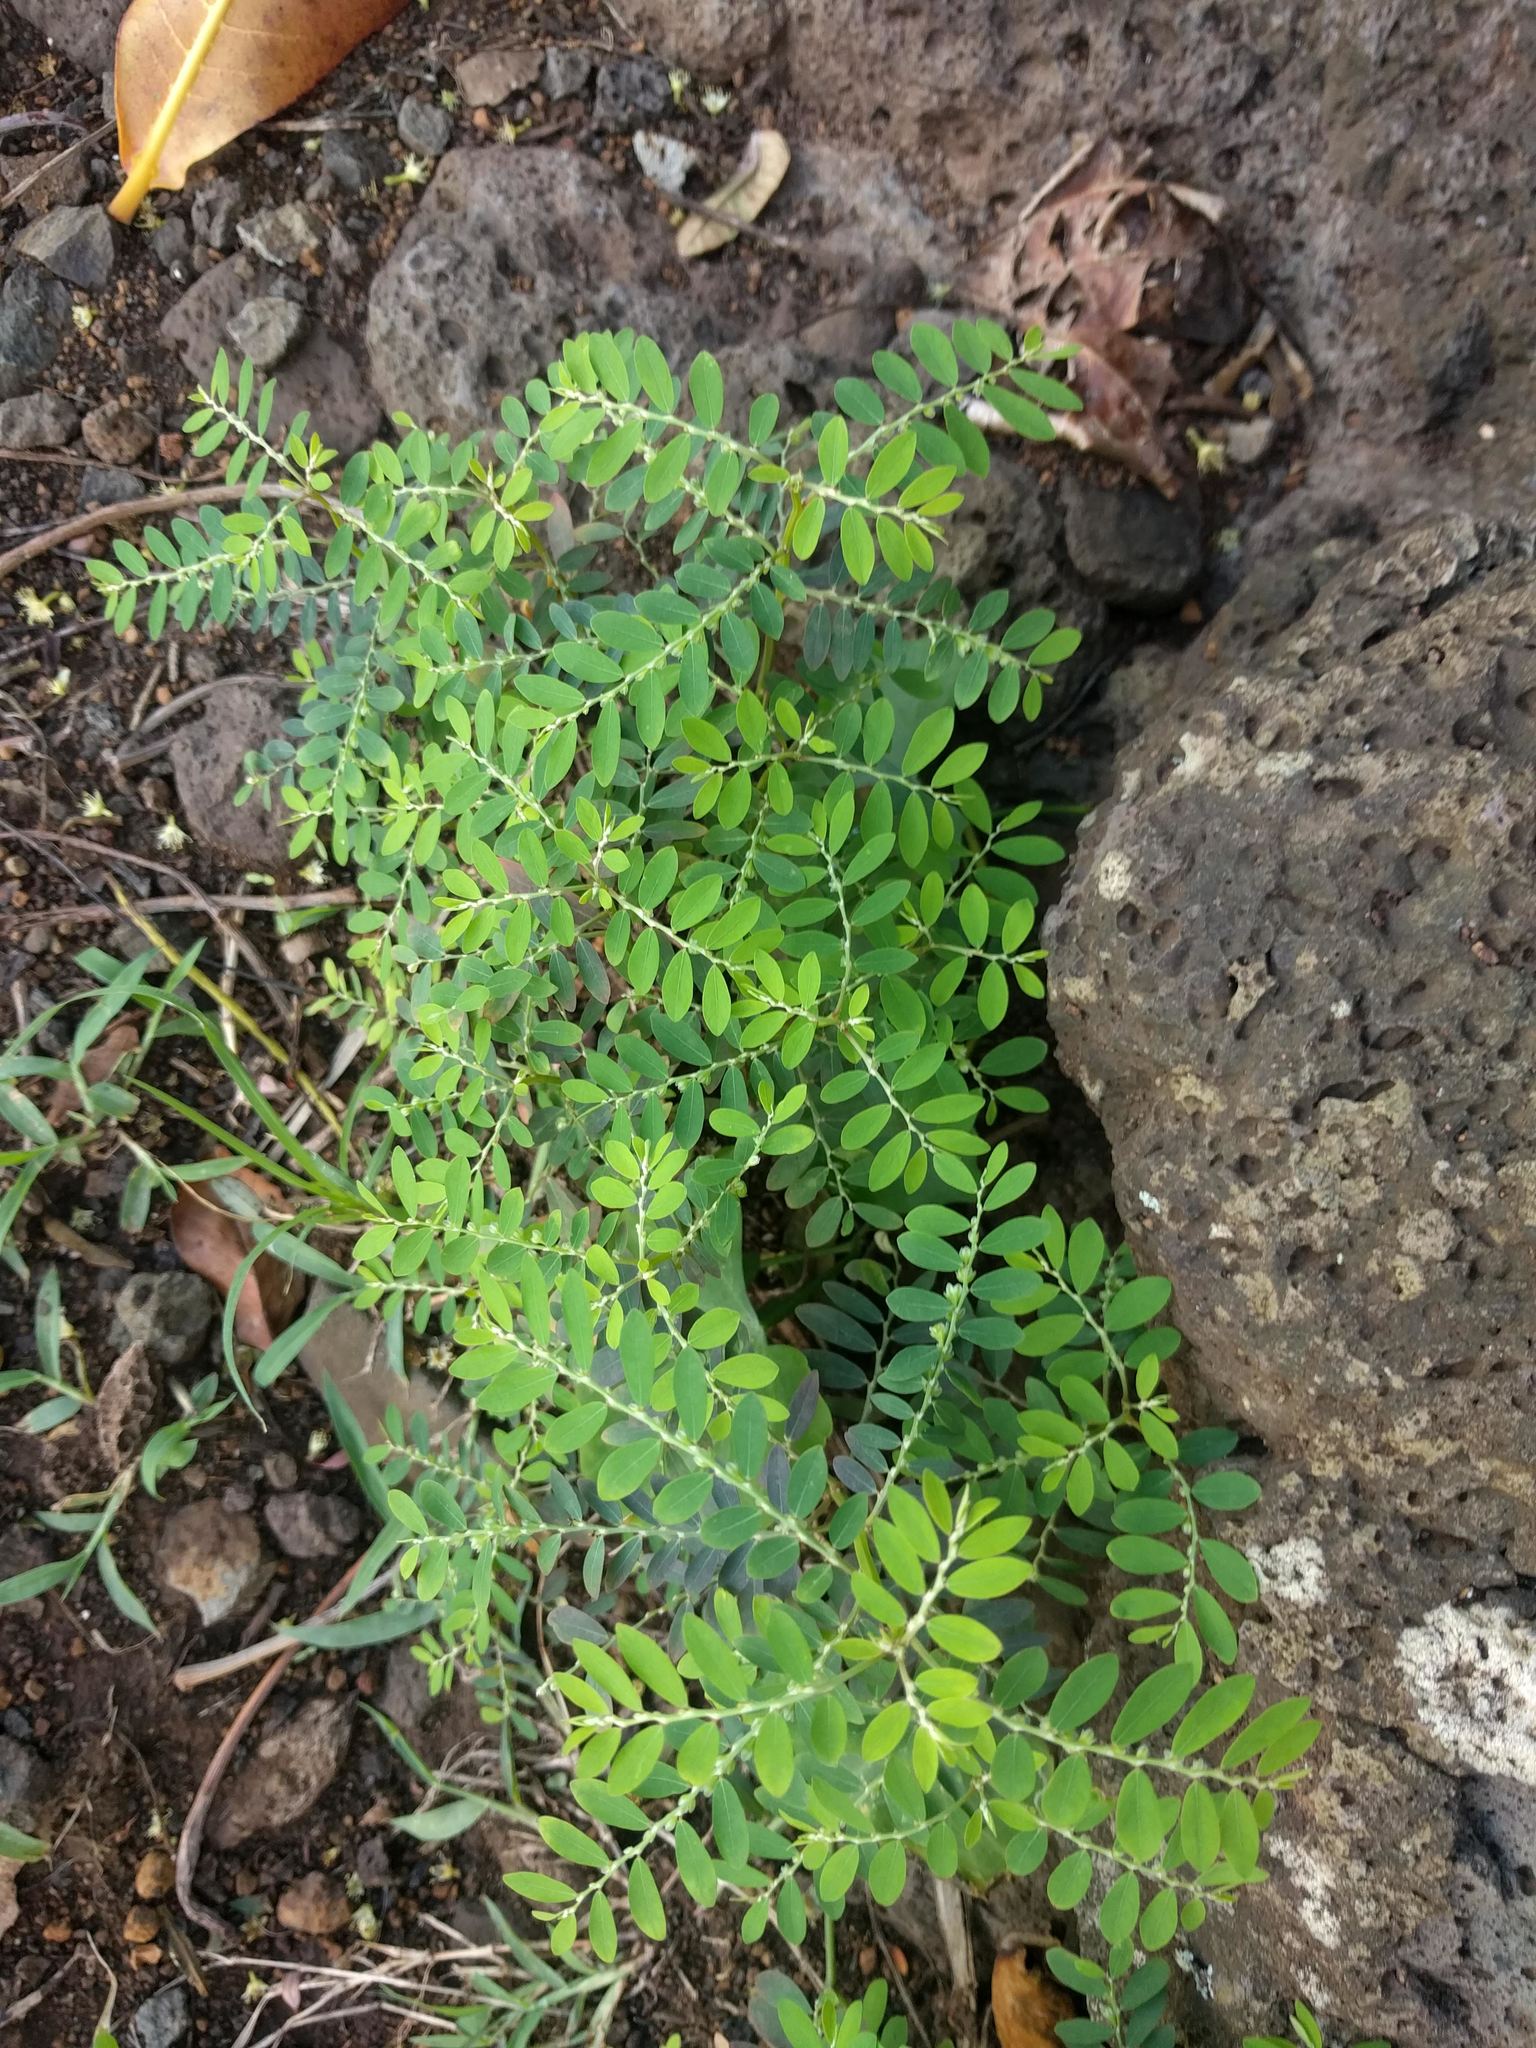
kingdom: Plantae
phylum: Tracheophyta
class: Magnoliopsida
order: Malpighiales
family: Phyllanthaceae
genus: Phyllanthus
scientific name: Phyllanthus debilis
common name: Niruri
